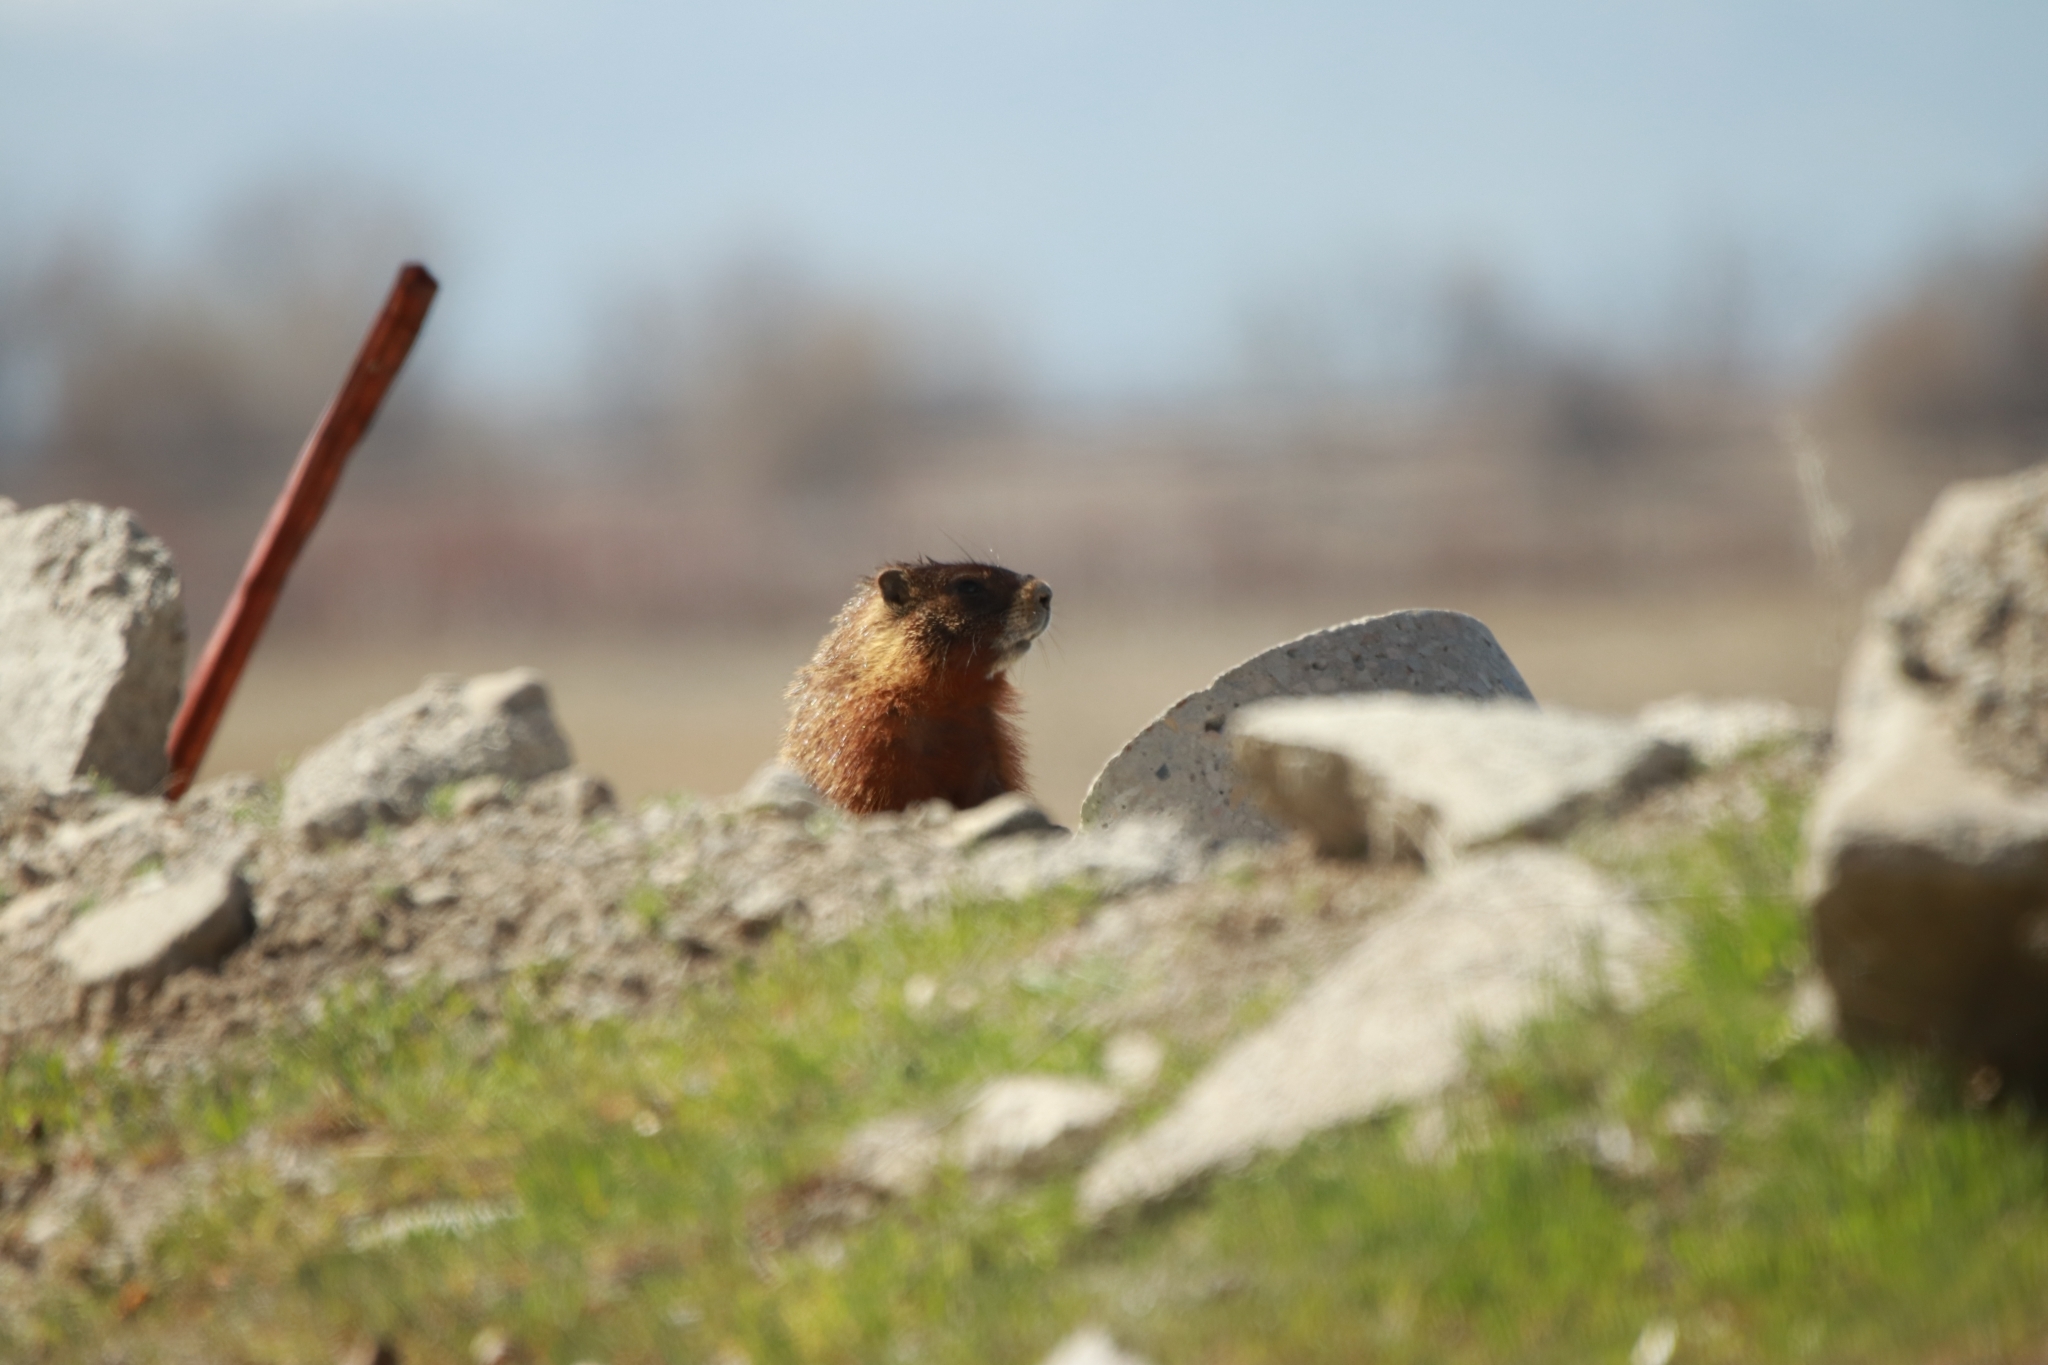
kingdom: Animalia
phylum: Chordata
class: Mammalia
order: Rodentia
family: Sciuridae
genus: Marmota
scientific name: Marmota flaviventris
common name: Yellow-bellied marmot
